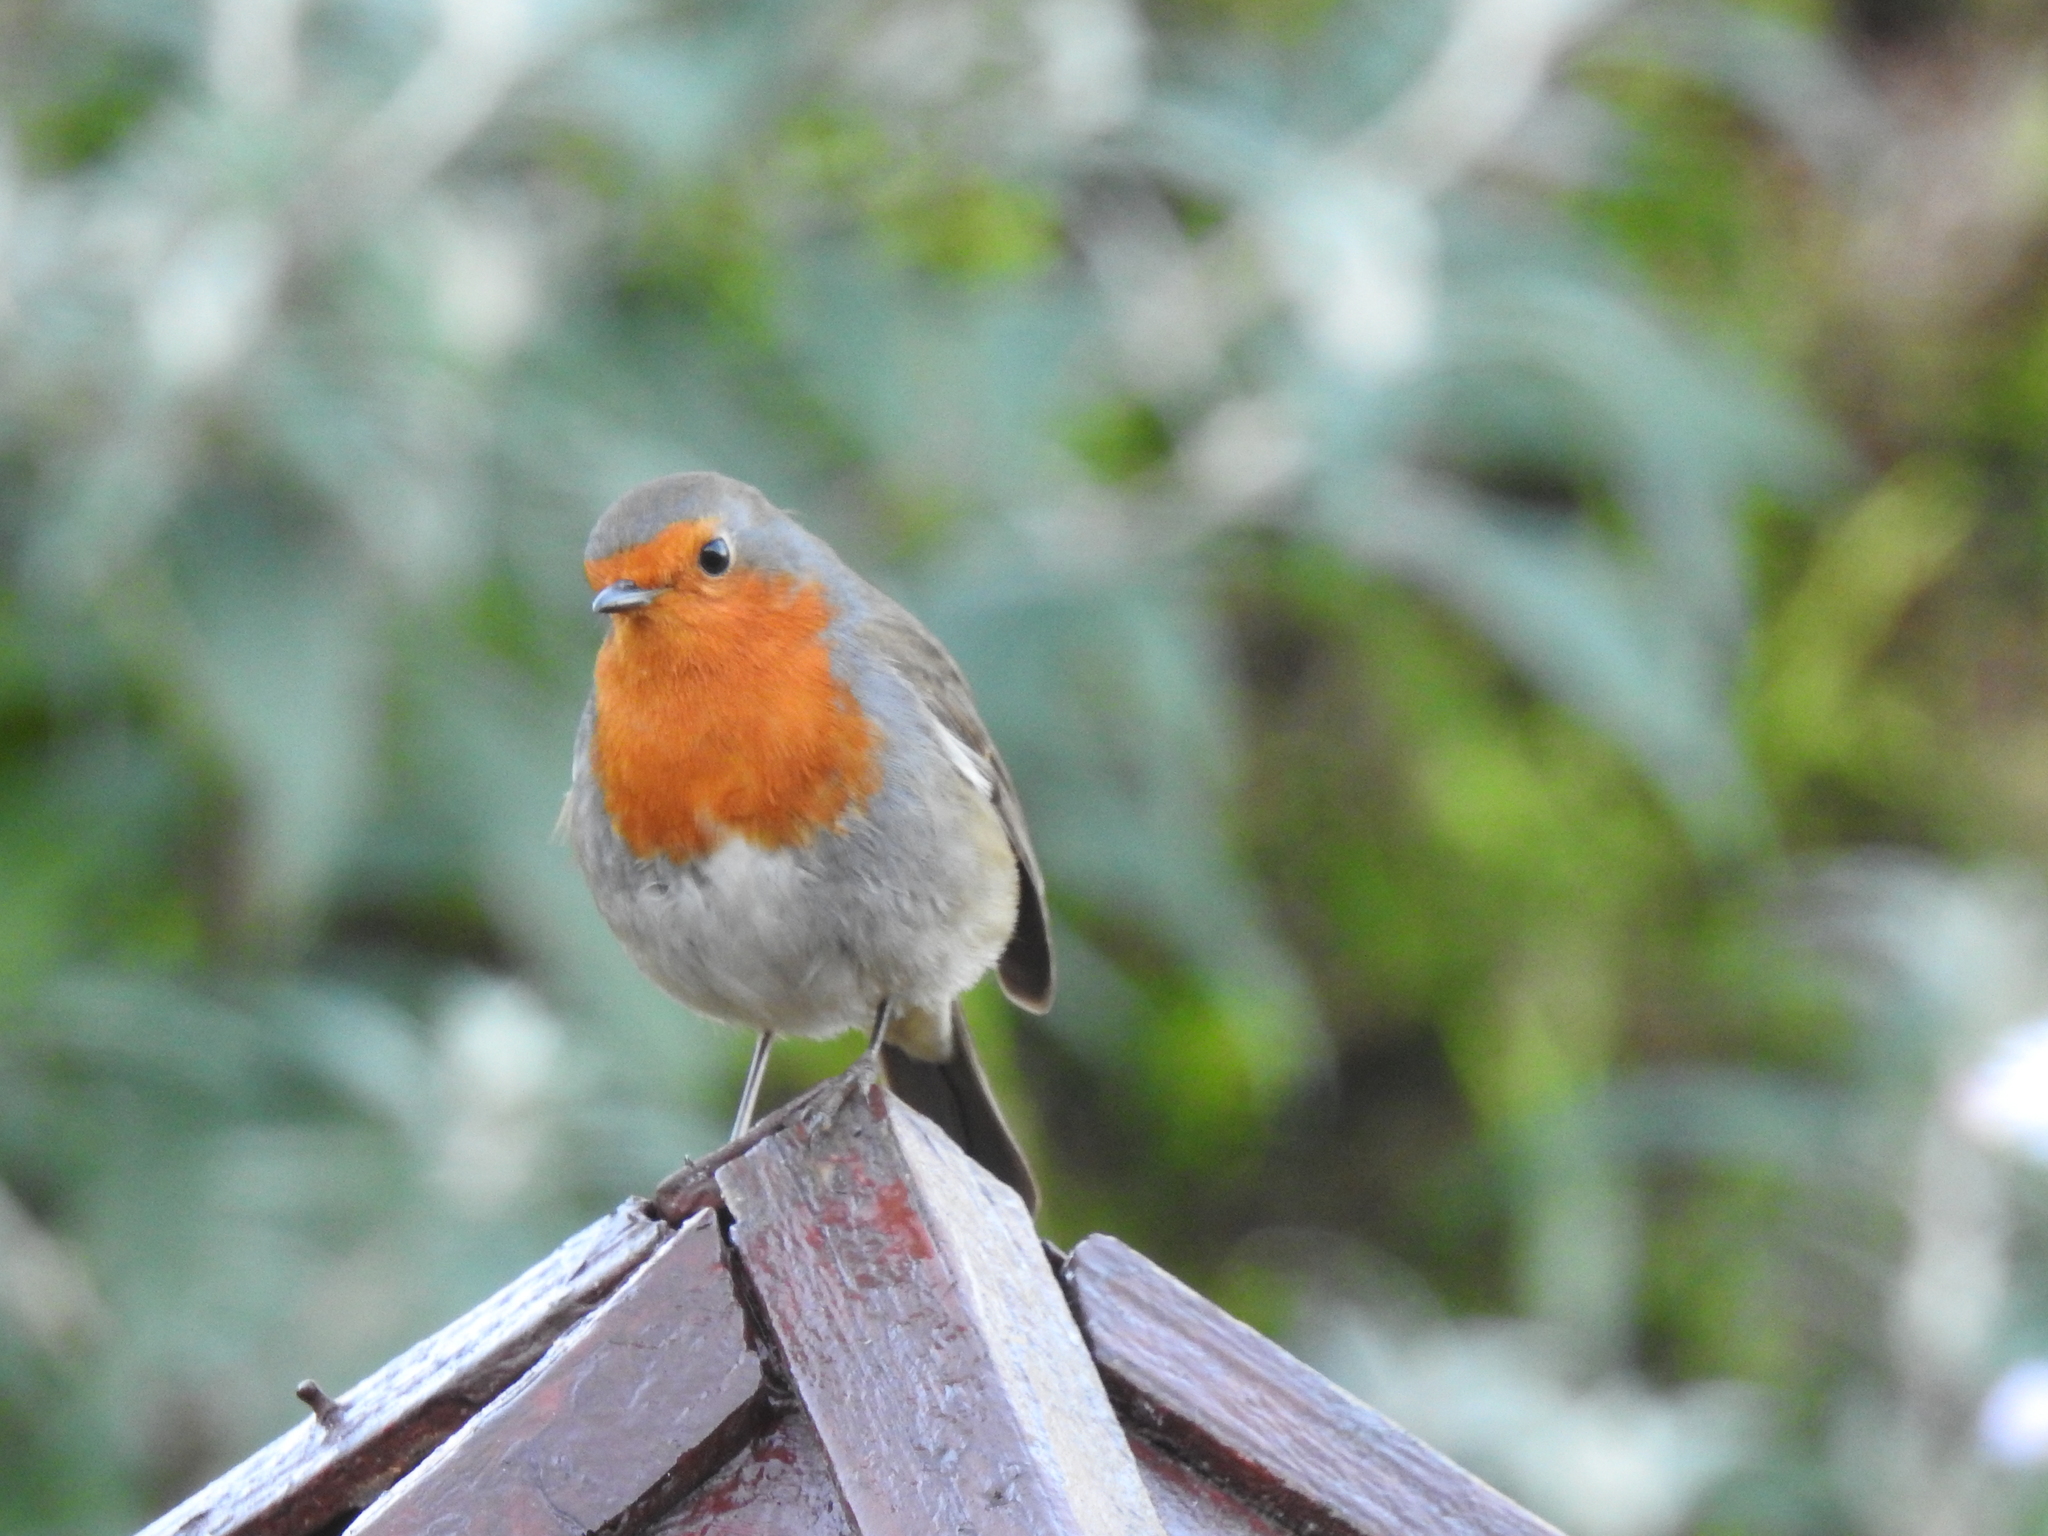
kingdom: Animalia
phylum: Chordata
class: Aves
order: Passeriformes
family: Muscicapidae
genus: Erithacus
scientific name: Erithacus rubecula
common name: European robin
